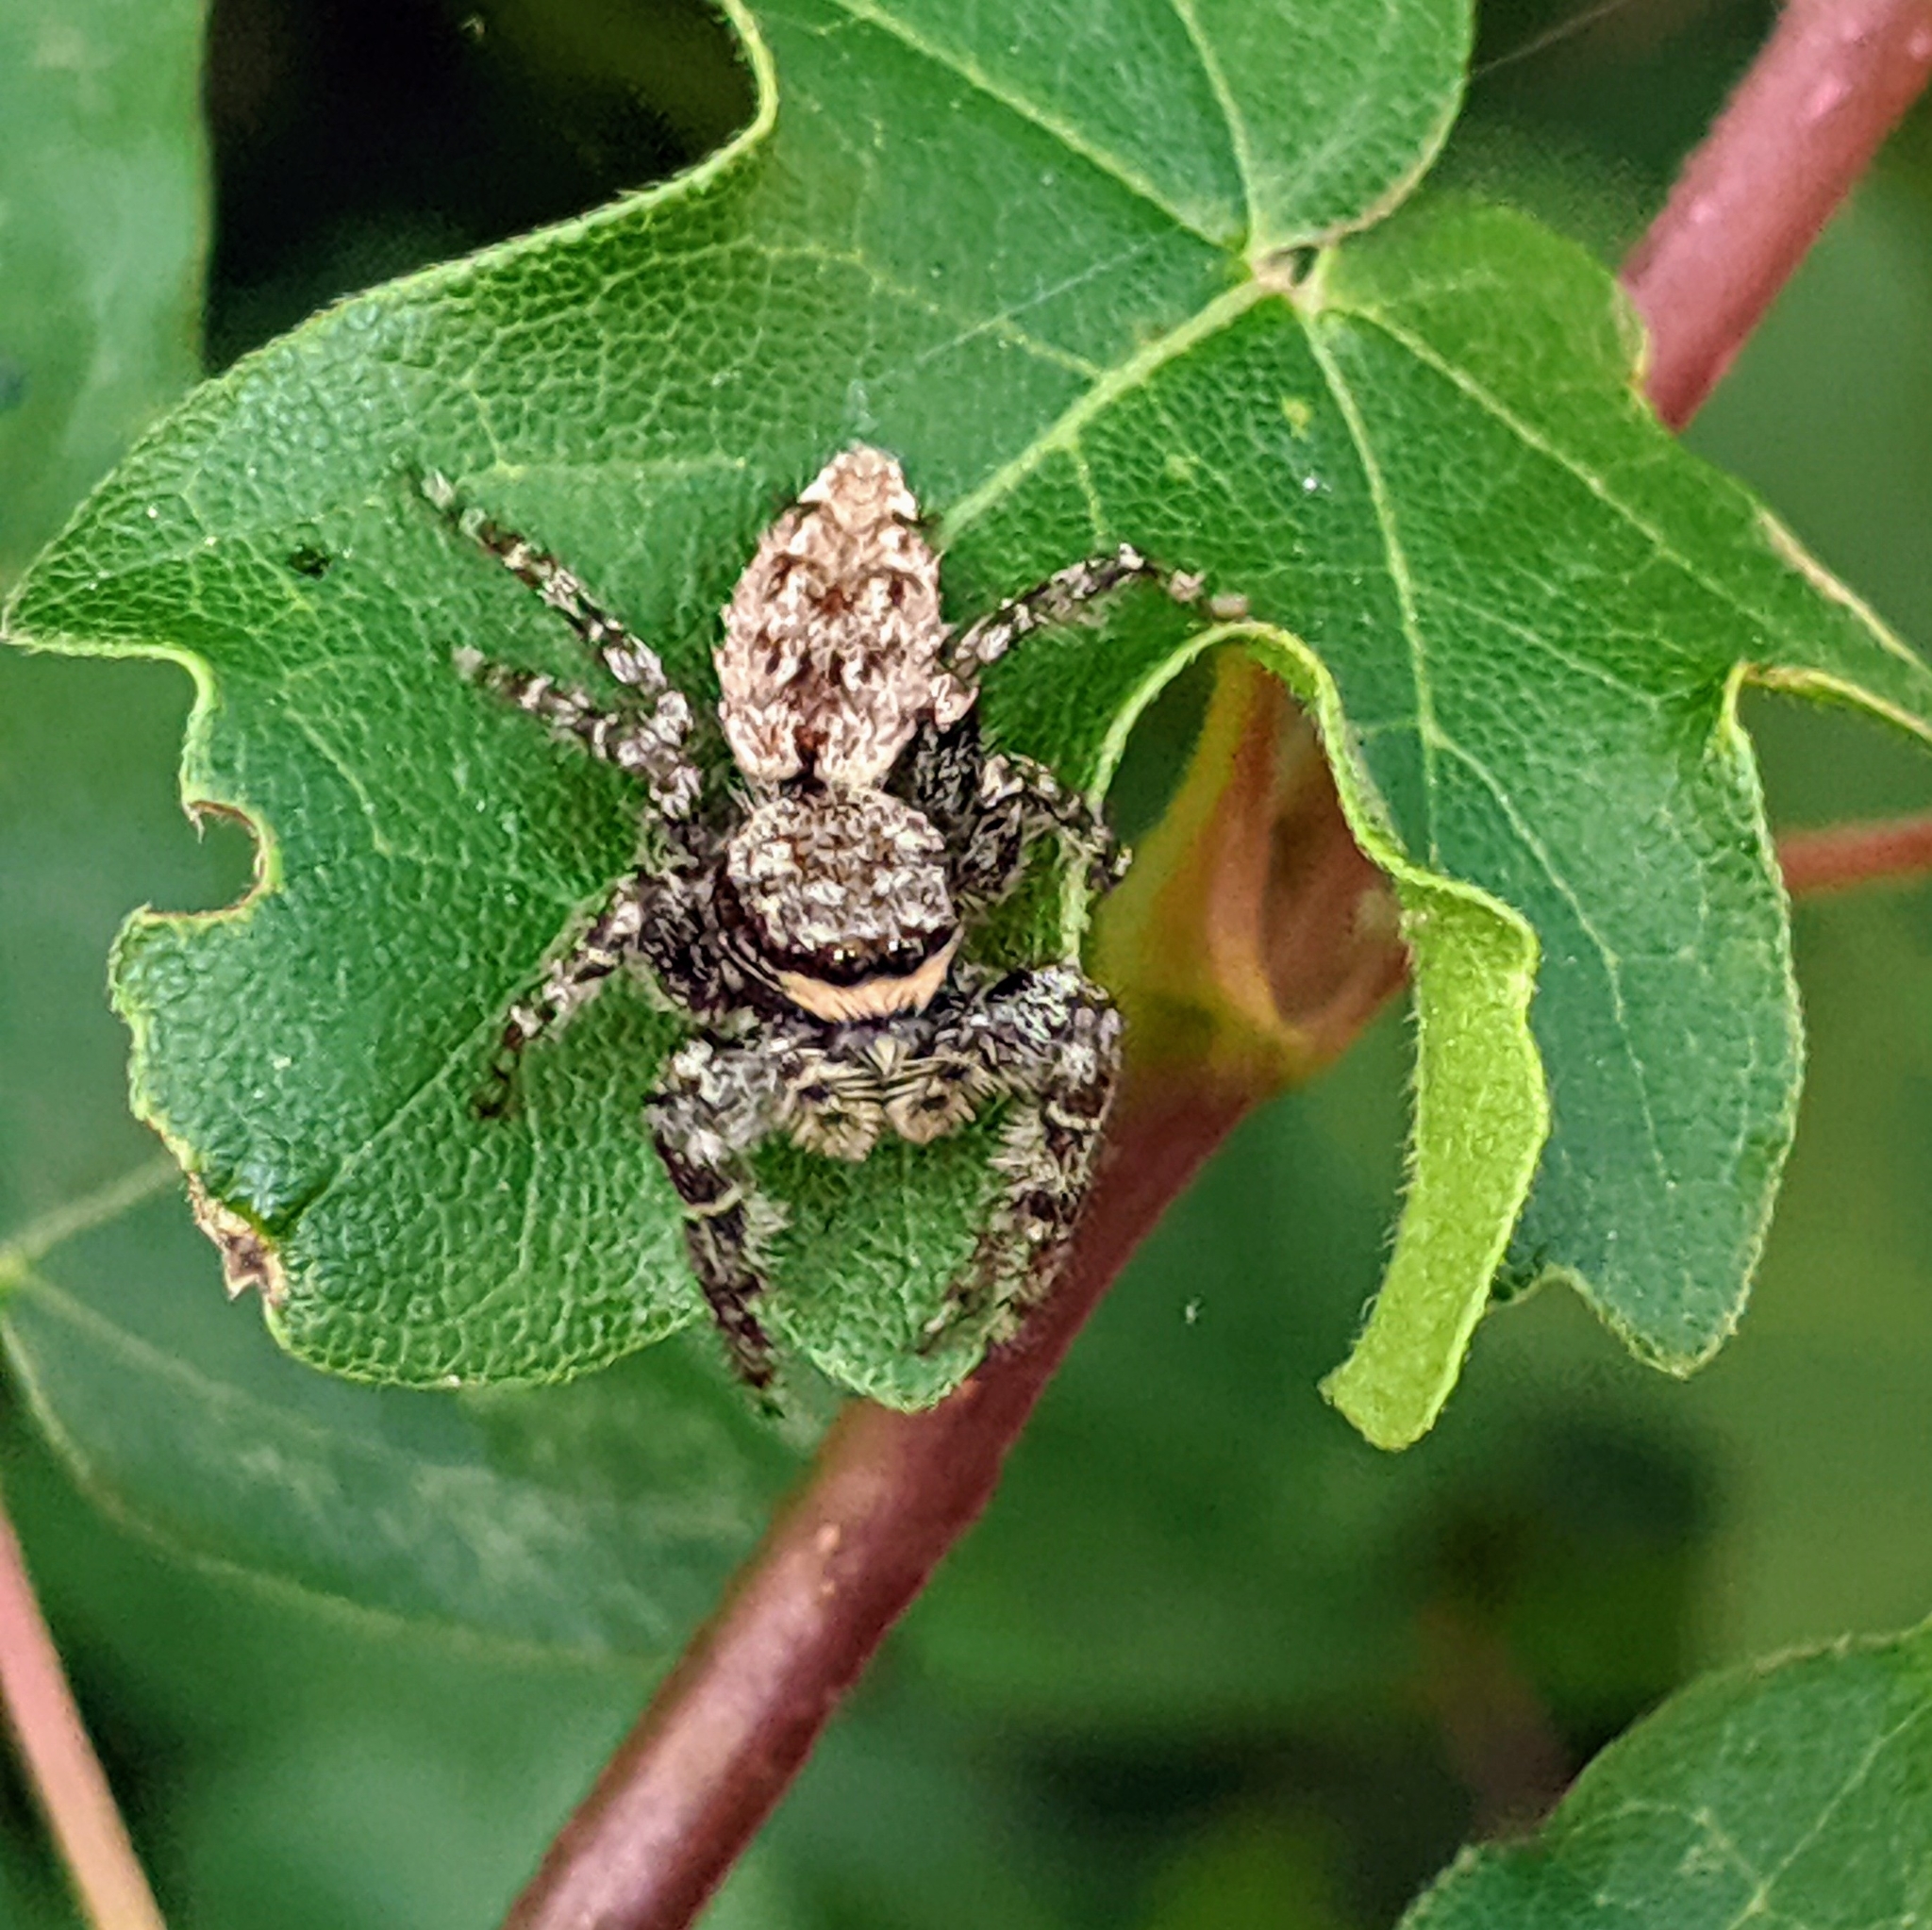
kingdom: Animalia
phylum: Arthropoda
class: Arachnida
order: Araneae
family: Salticidae
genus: Marpissa
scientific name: Marpissa muscosa
